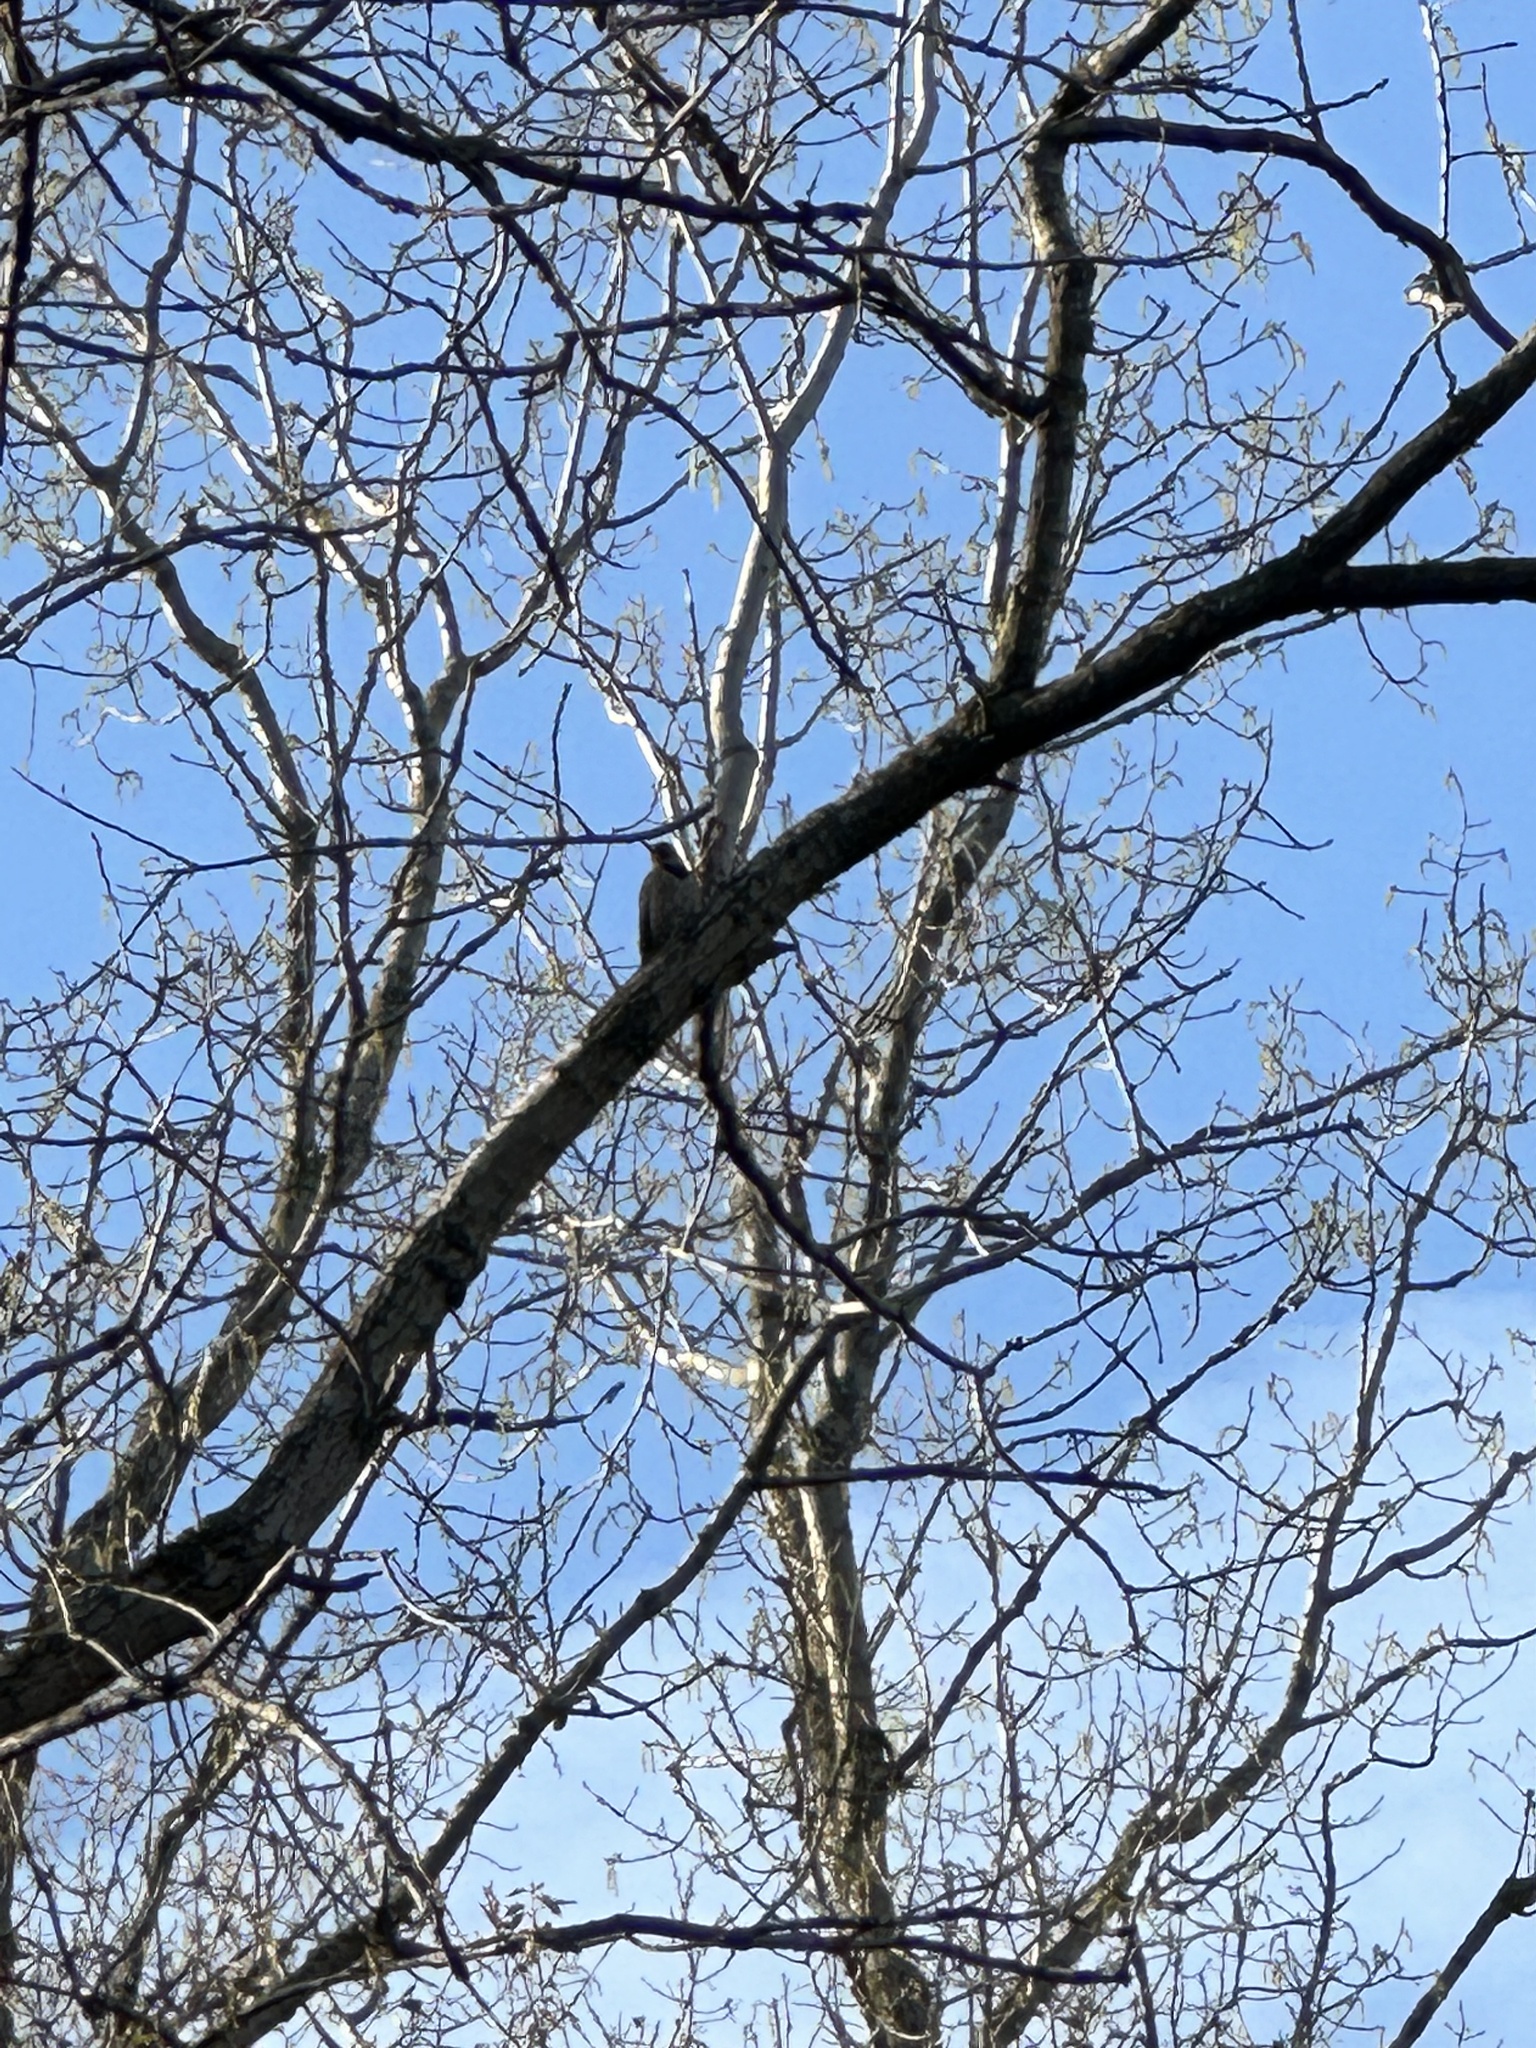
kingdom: Animalia
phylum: Chordata
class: Aves
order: Piciformes
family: Picidae
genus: Colaptes
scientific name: Colaptes auratus
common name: Northern flicker
